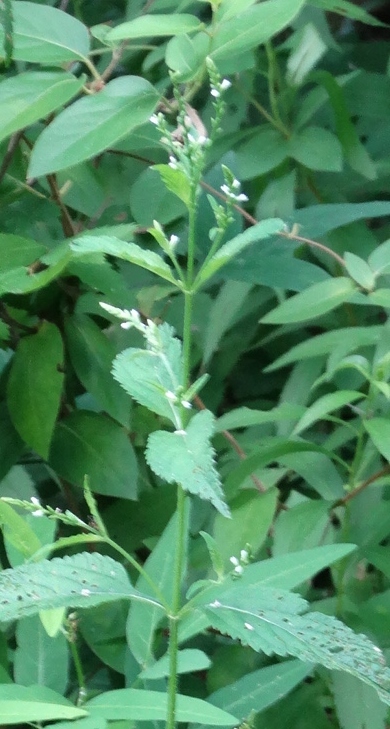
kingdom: Plantae
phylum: Tracheophyta
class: Magnoliopsida
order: Lamiales
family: Verbenaceae
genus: Verbena
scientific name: Verbena urticifolia
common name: Nettle-leaved vervain
